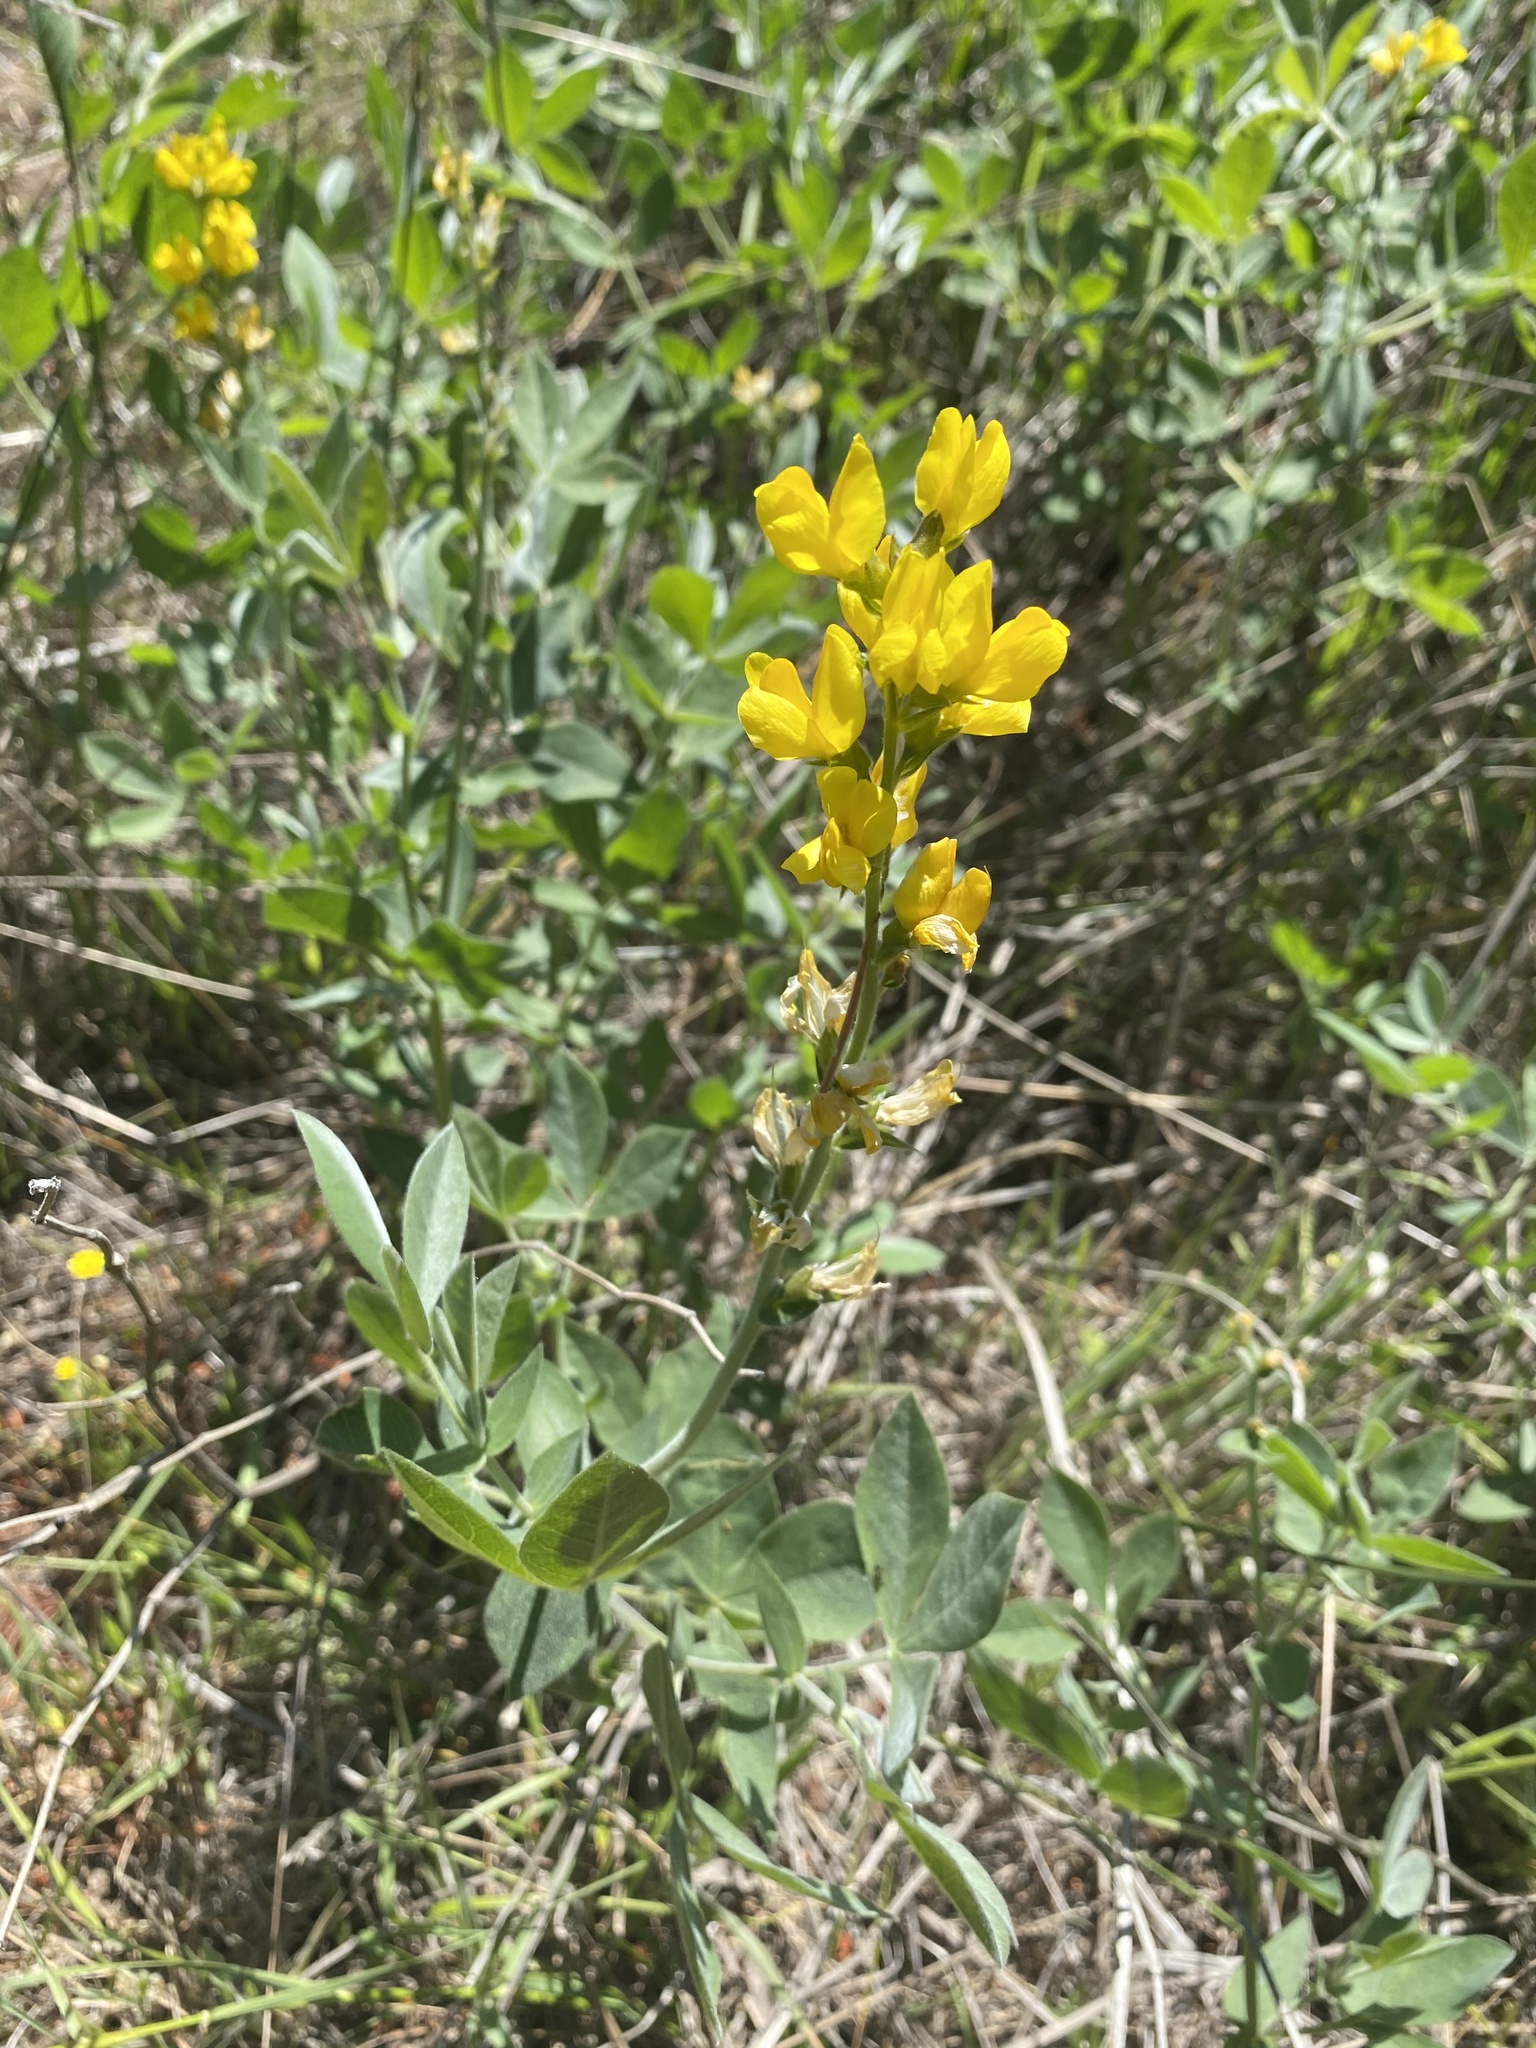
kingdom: Plantae
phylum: Tracheophyta
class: Magnoliopsida
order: Fabales
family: Fabaceae
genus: Thermopsis
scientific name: Thermopsis californica
